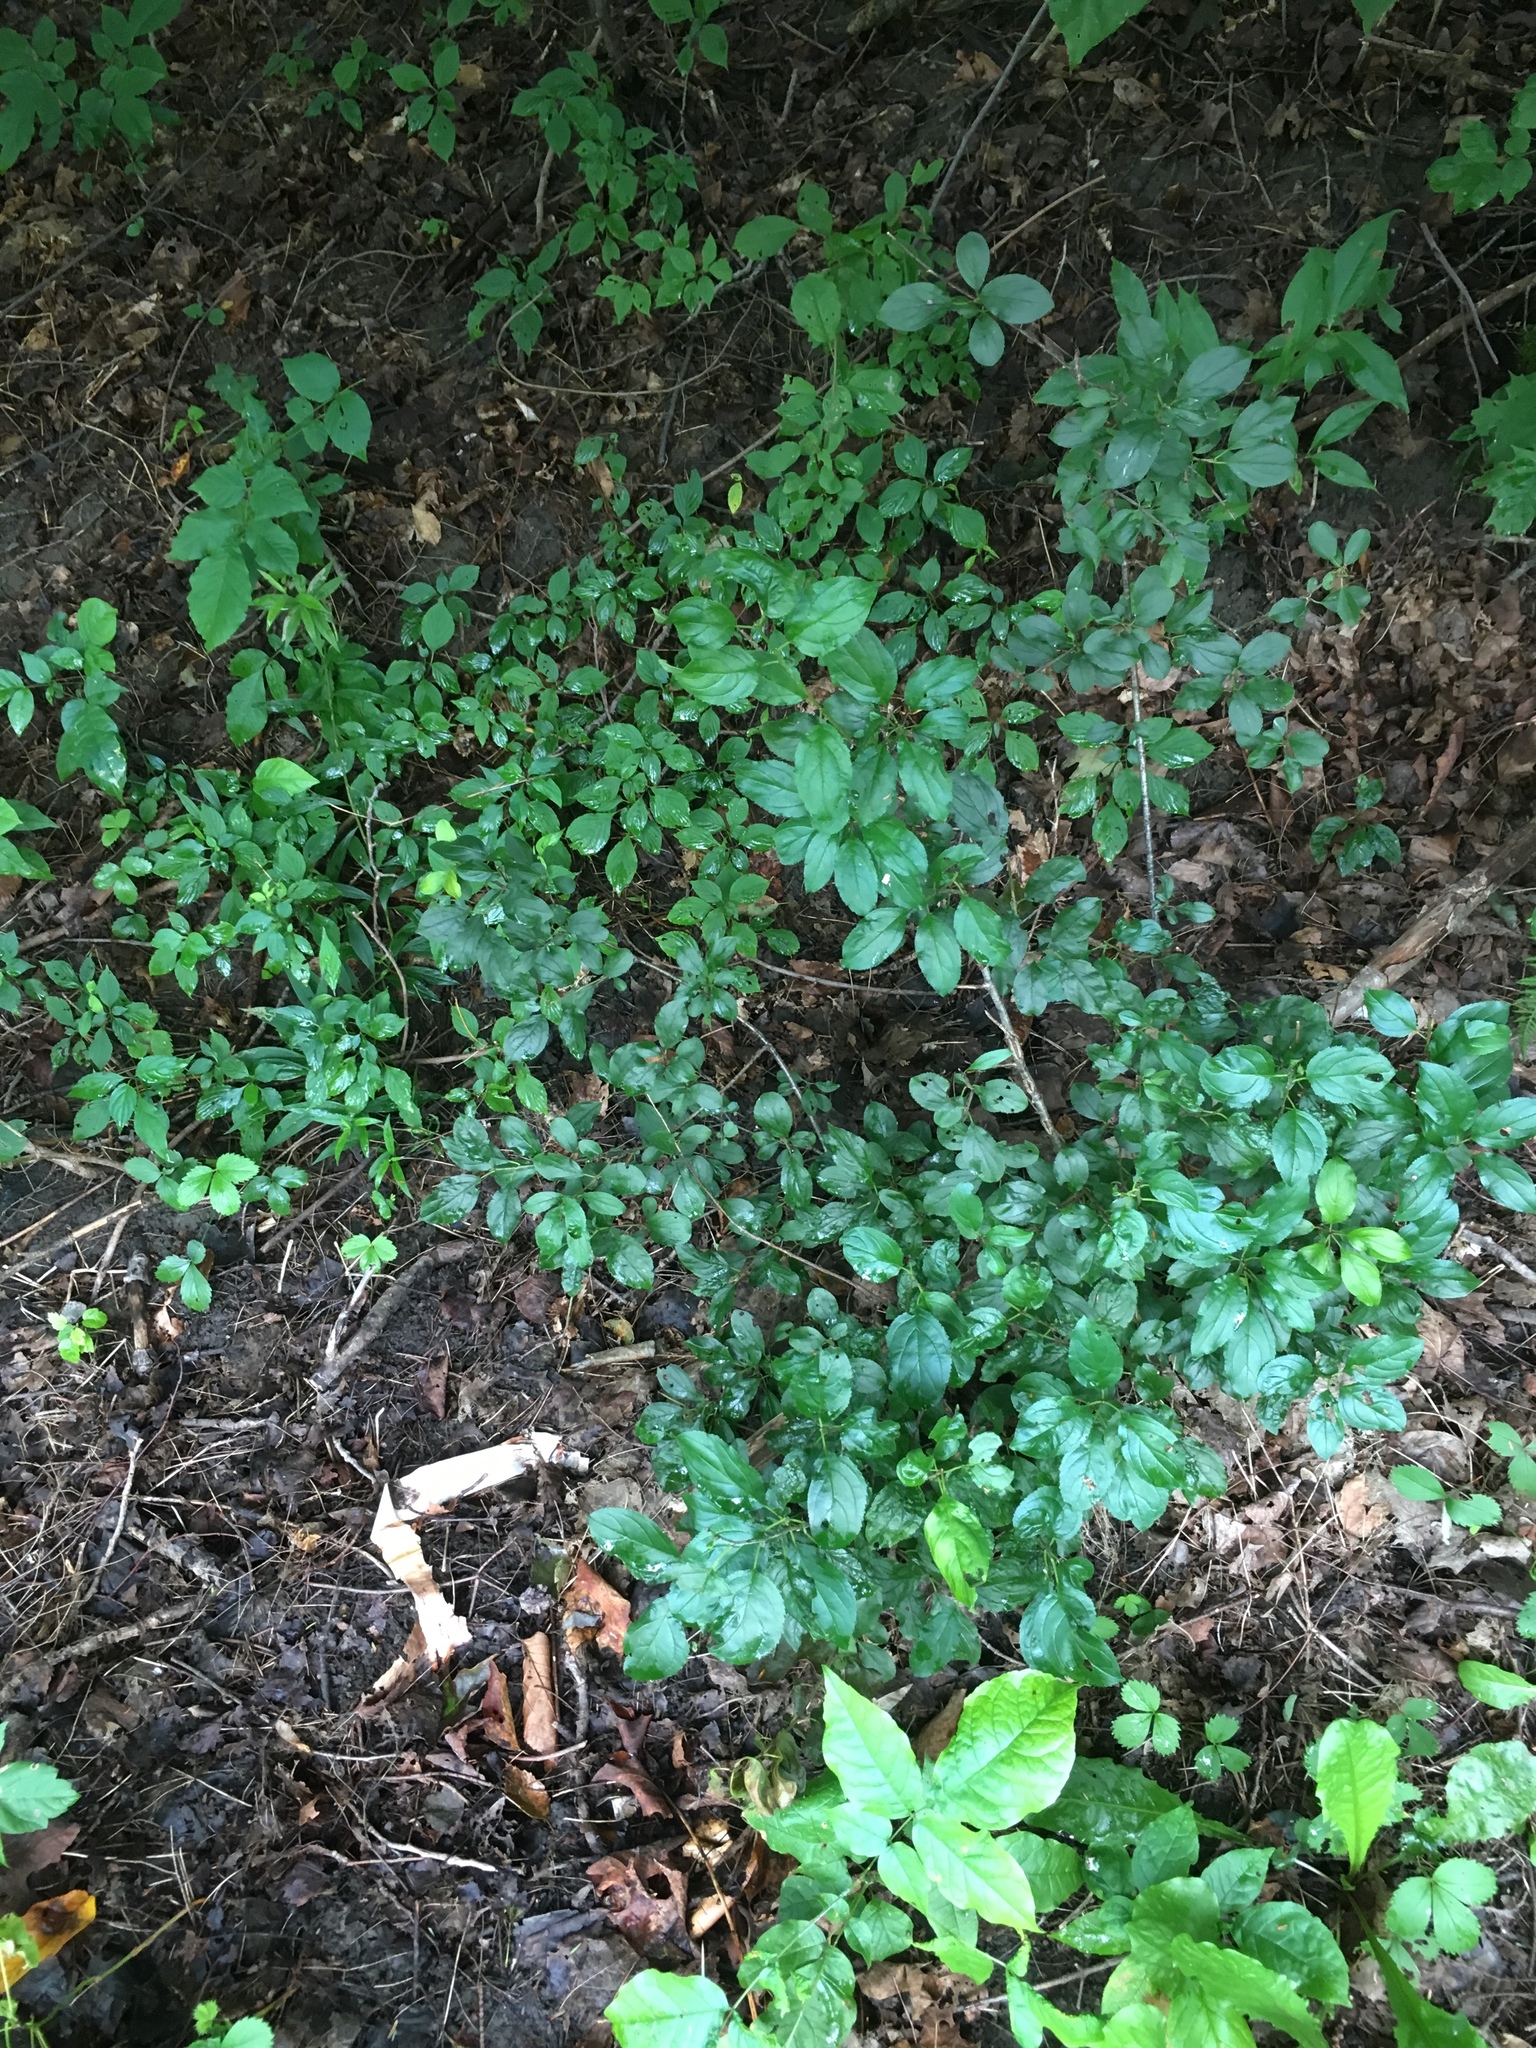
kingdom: Plantae
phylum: Tracheophyta
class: Magnoliopsida
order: Rosales
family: Rhamnaceae
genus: Rhamnus
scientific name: Rhamnus cathartica
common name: Common buckthorn
